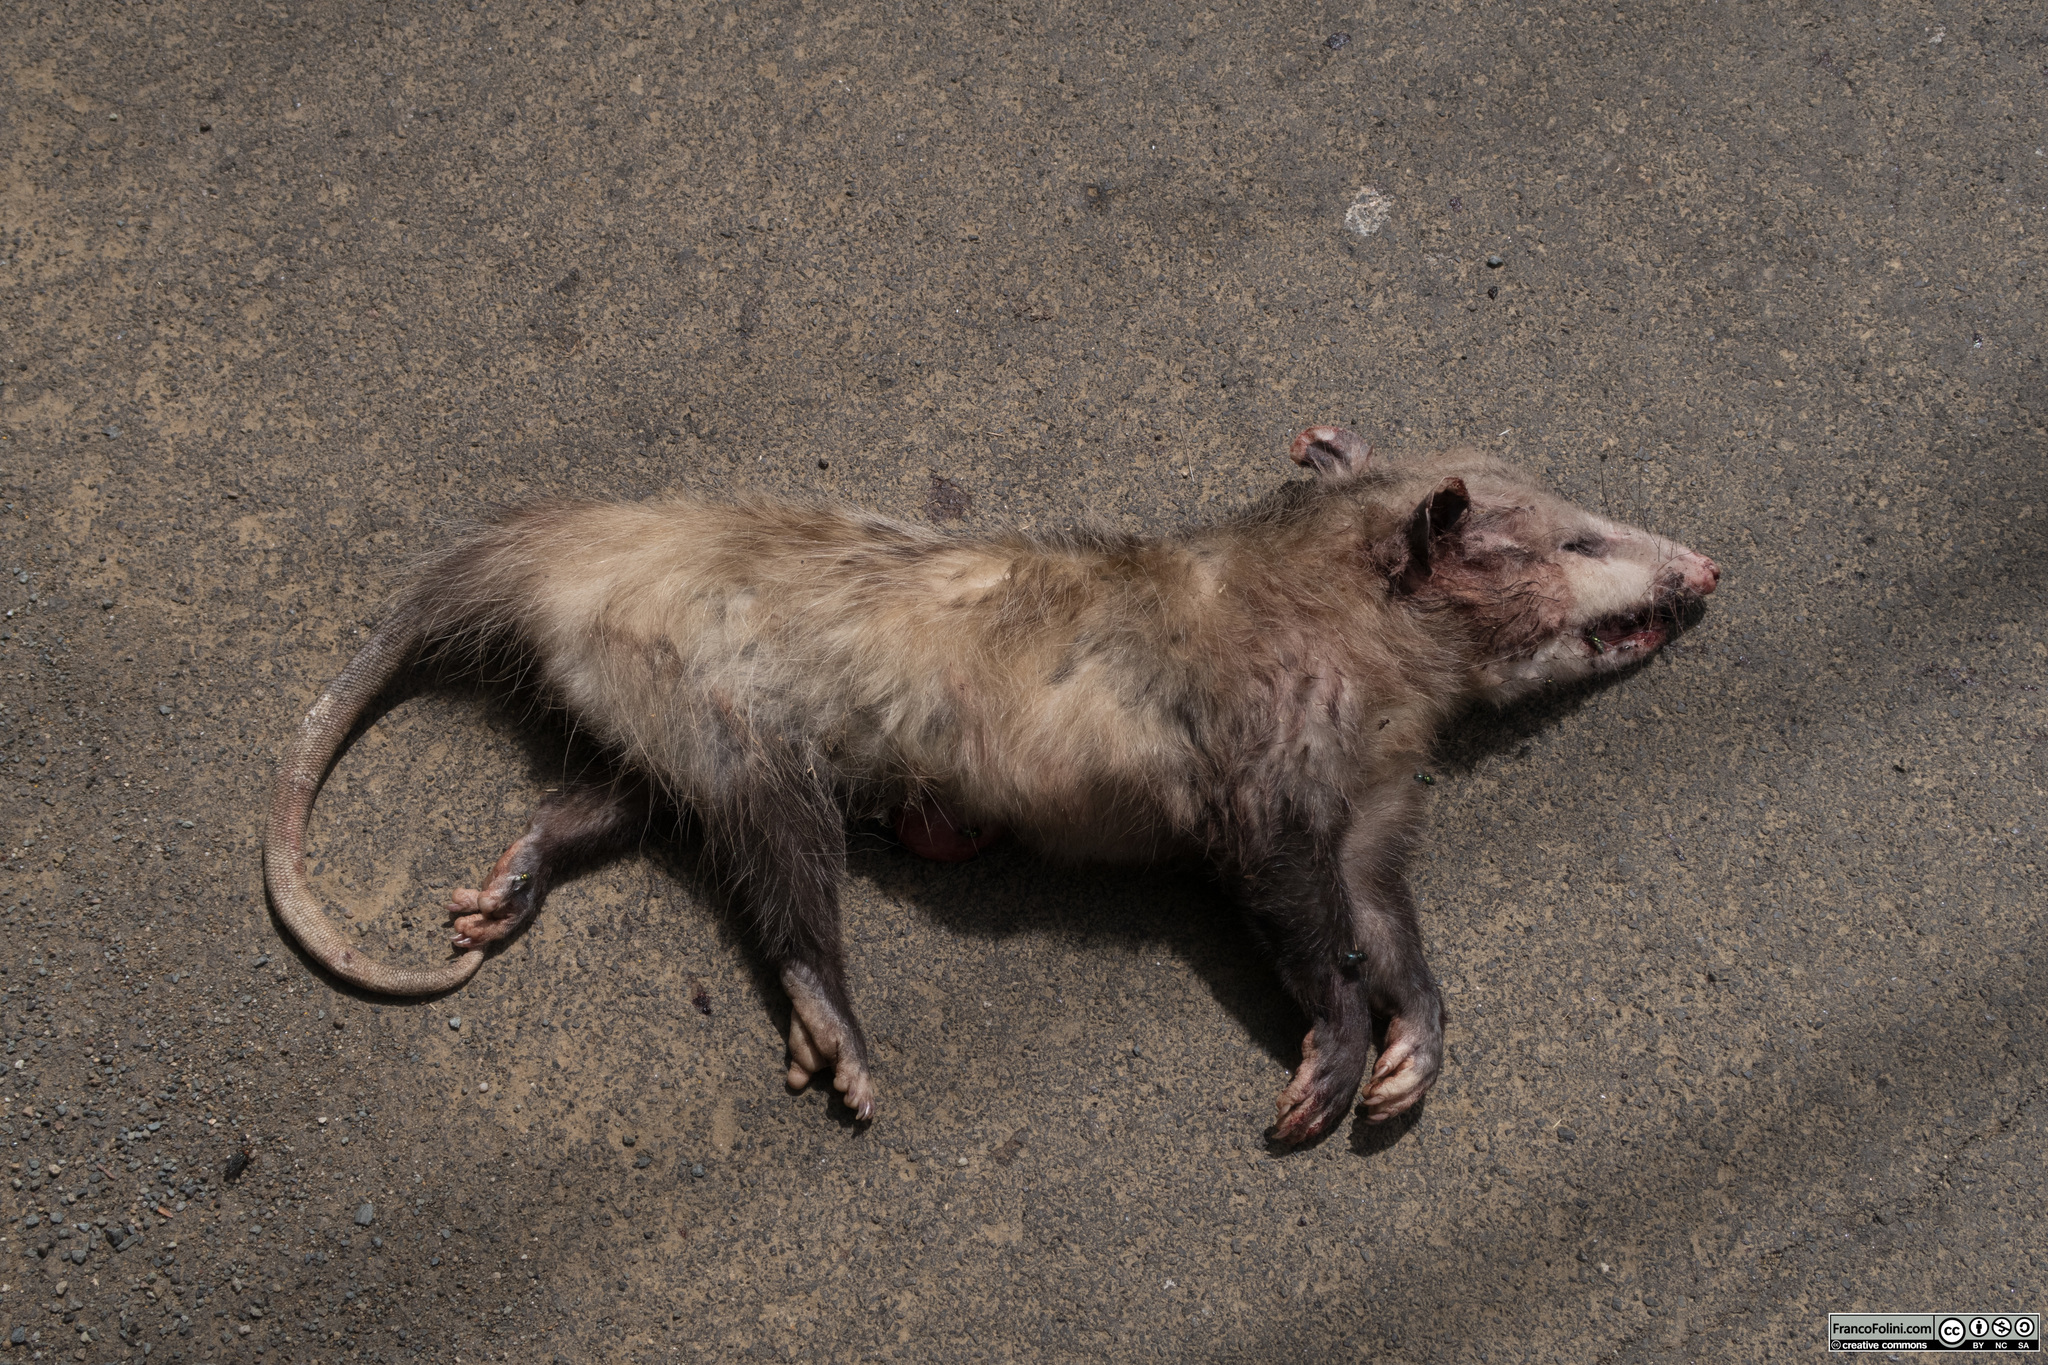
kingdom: Animalia
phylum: Chordata
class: Mammalia
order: Didelphimorphia
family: Didelphidae
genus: Didelphis
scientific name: Didelphis virginiana
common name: Virginia opossum
